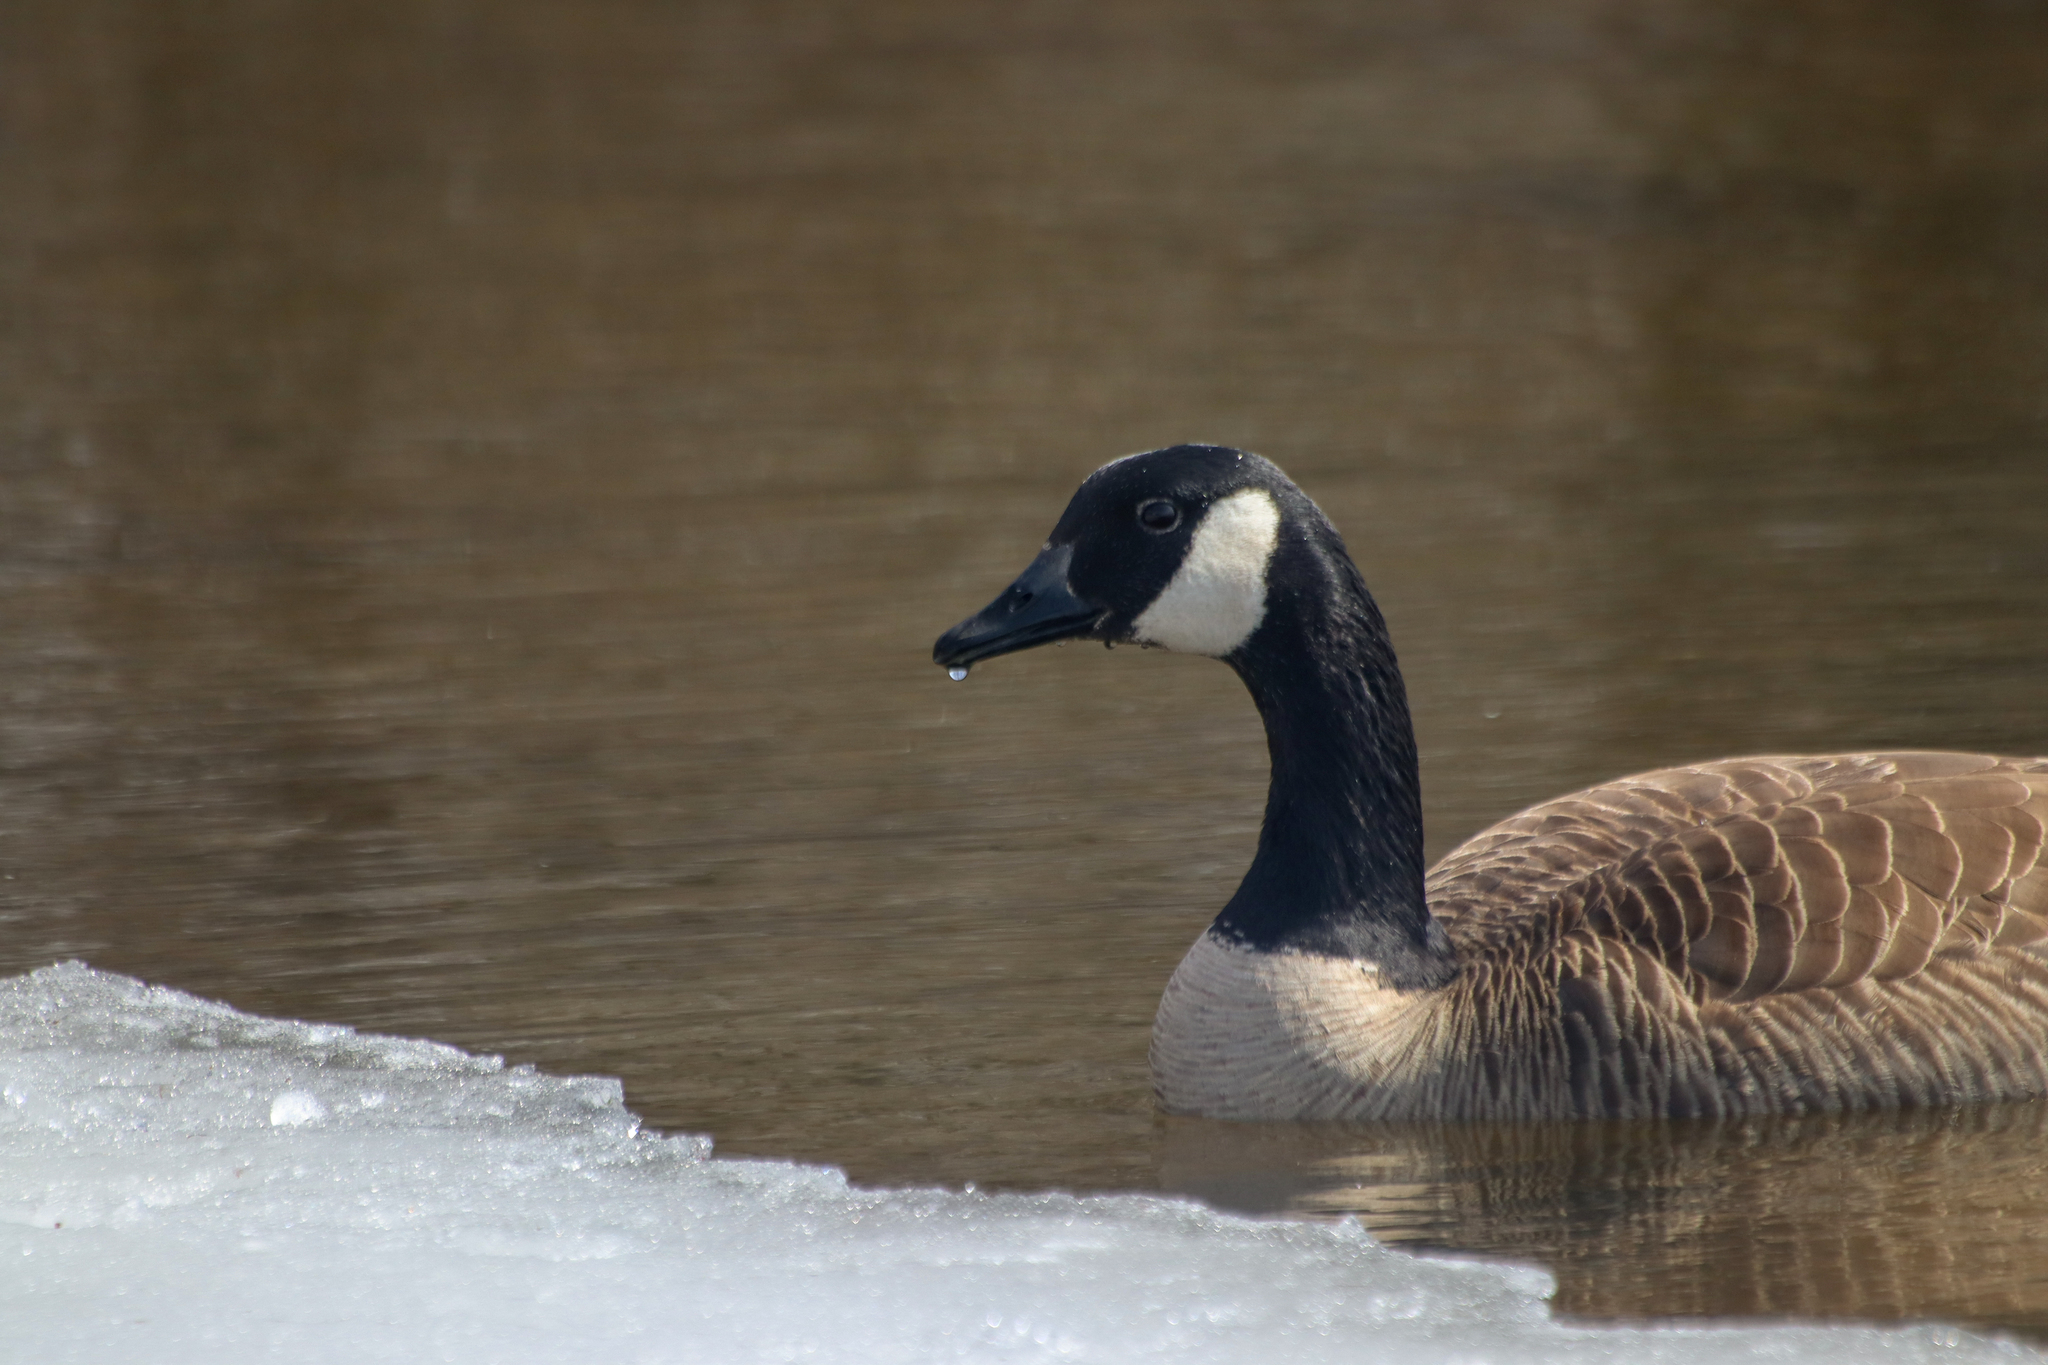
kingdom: Animalia
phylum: Chordata
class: Aves
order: Anseriformes
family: Anatidae
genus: Branta
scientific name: Branta canadensis
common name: Canada goose
